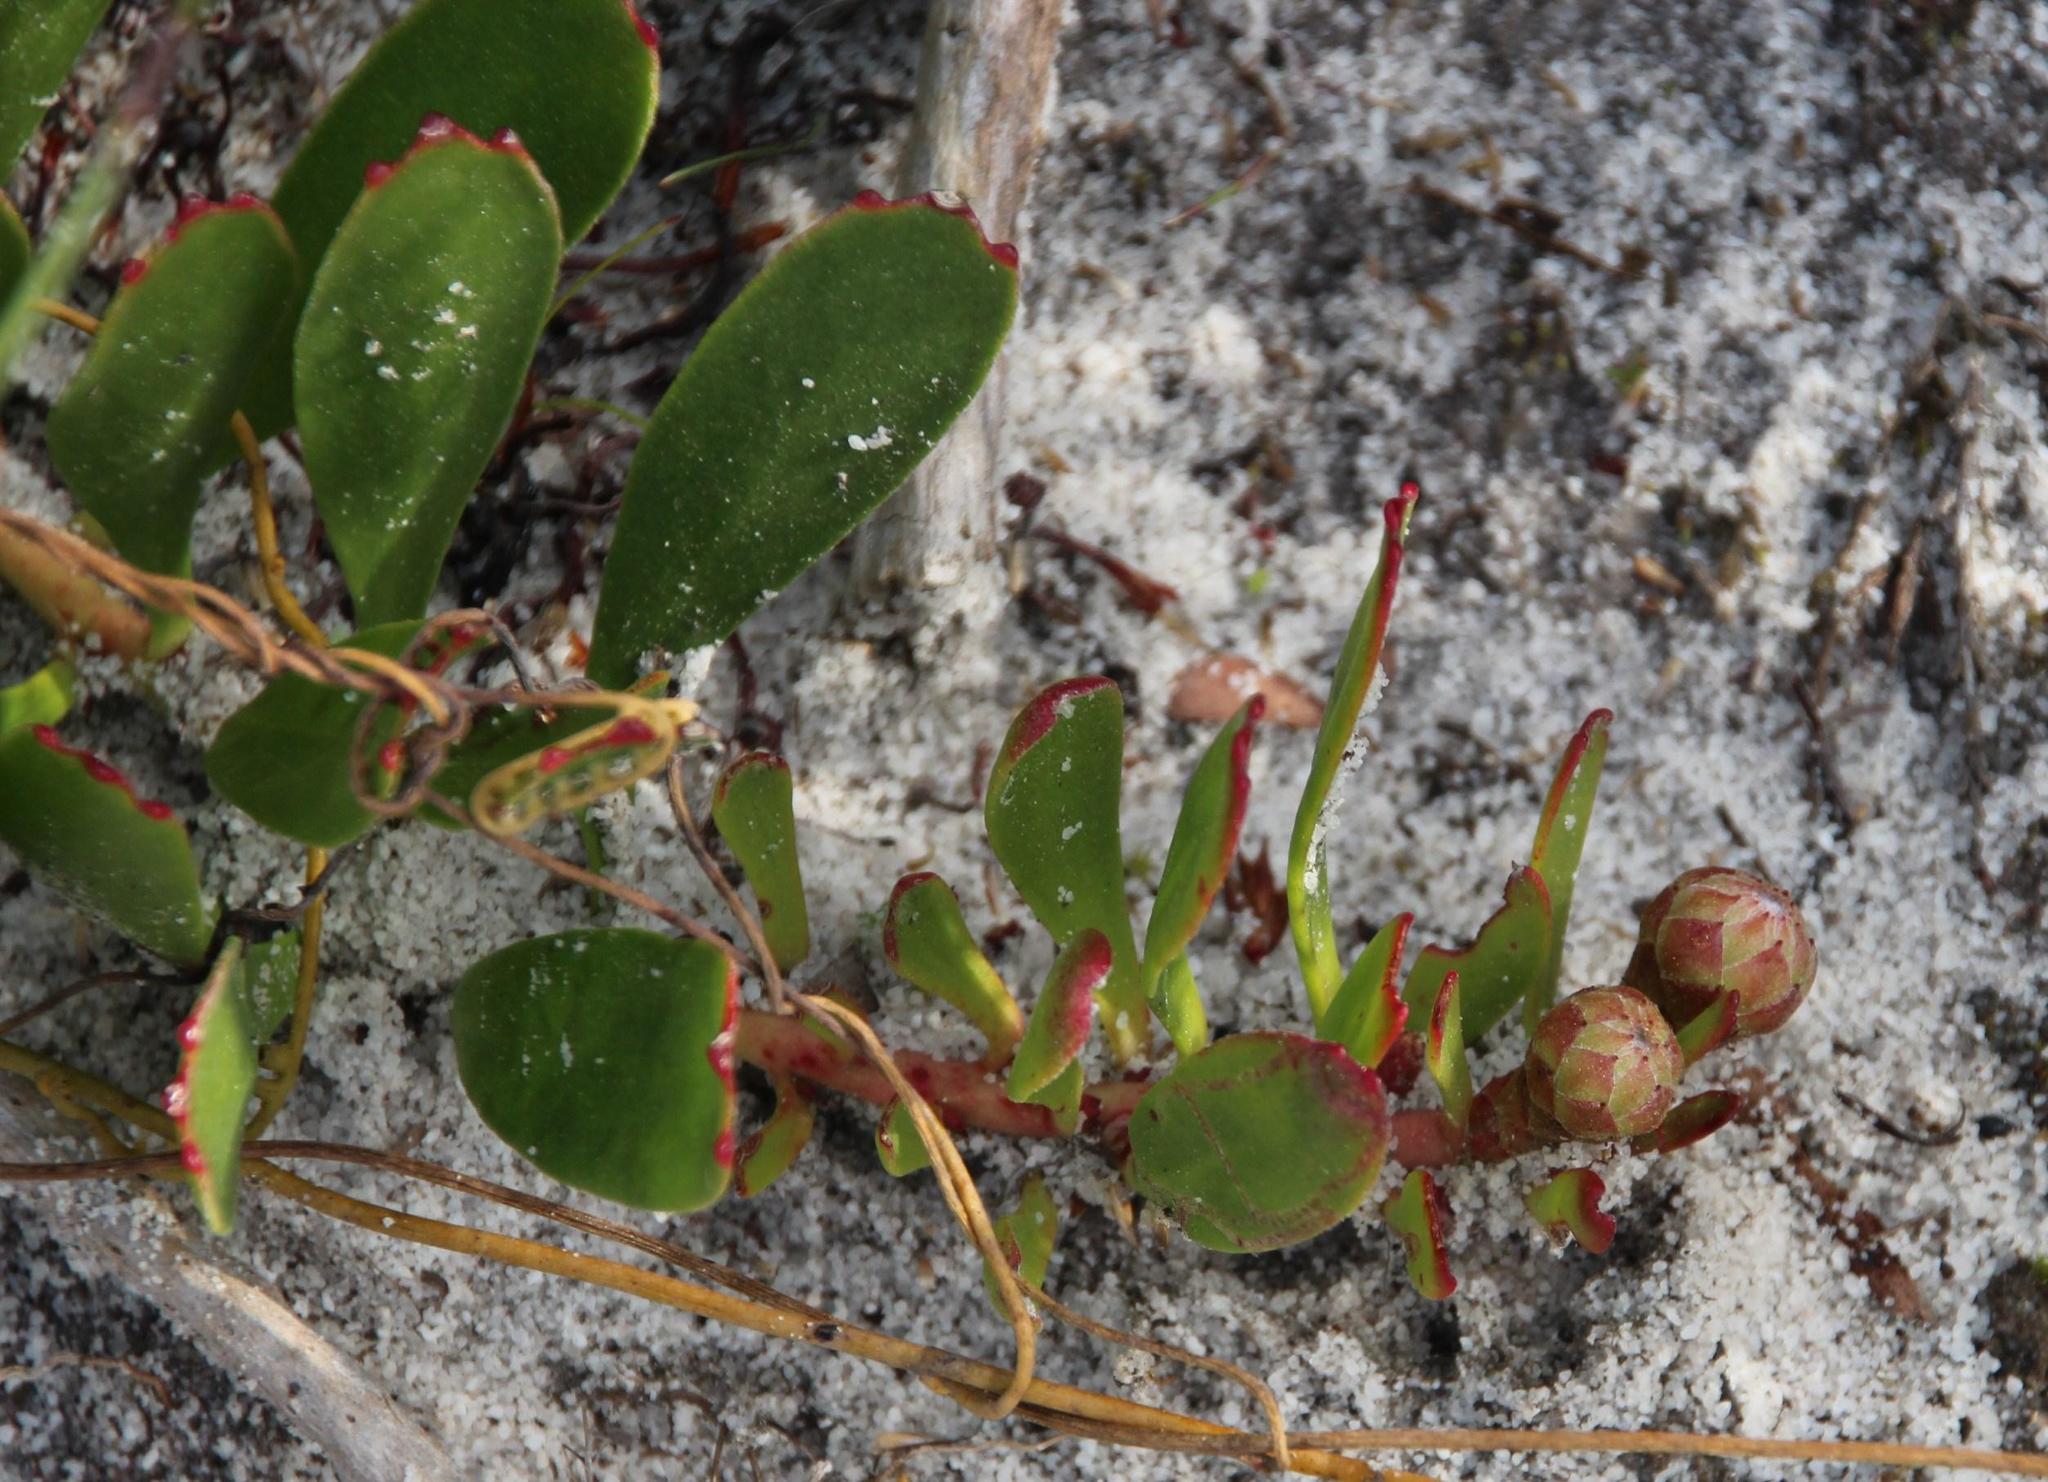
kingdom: Plantae
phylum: Tracheophyta
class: Magnoliopsida
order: Proteales
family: Proteaceae
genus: Leucospermum
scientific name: Leucospermum hypophyllocarpodendron
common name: Snakestem pincushion
